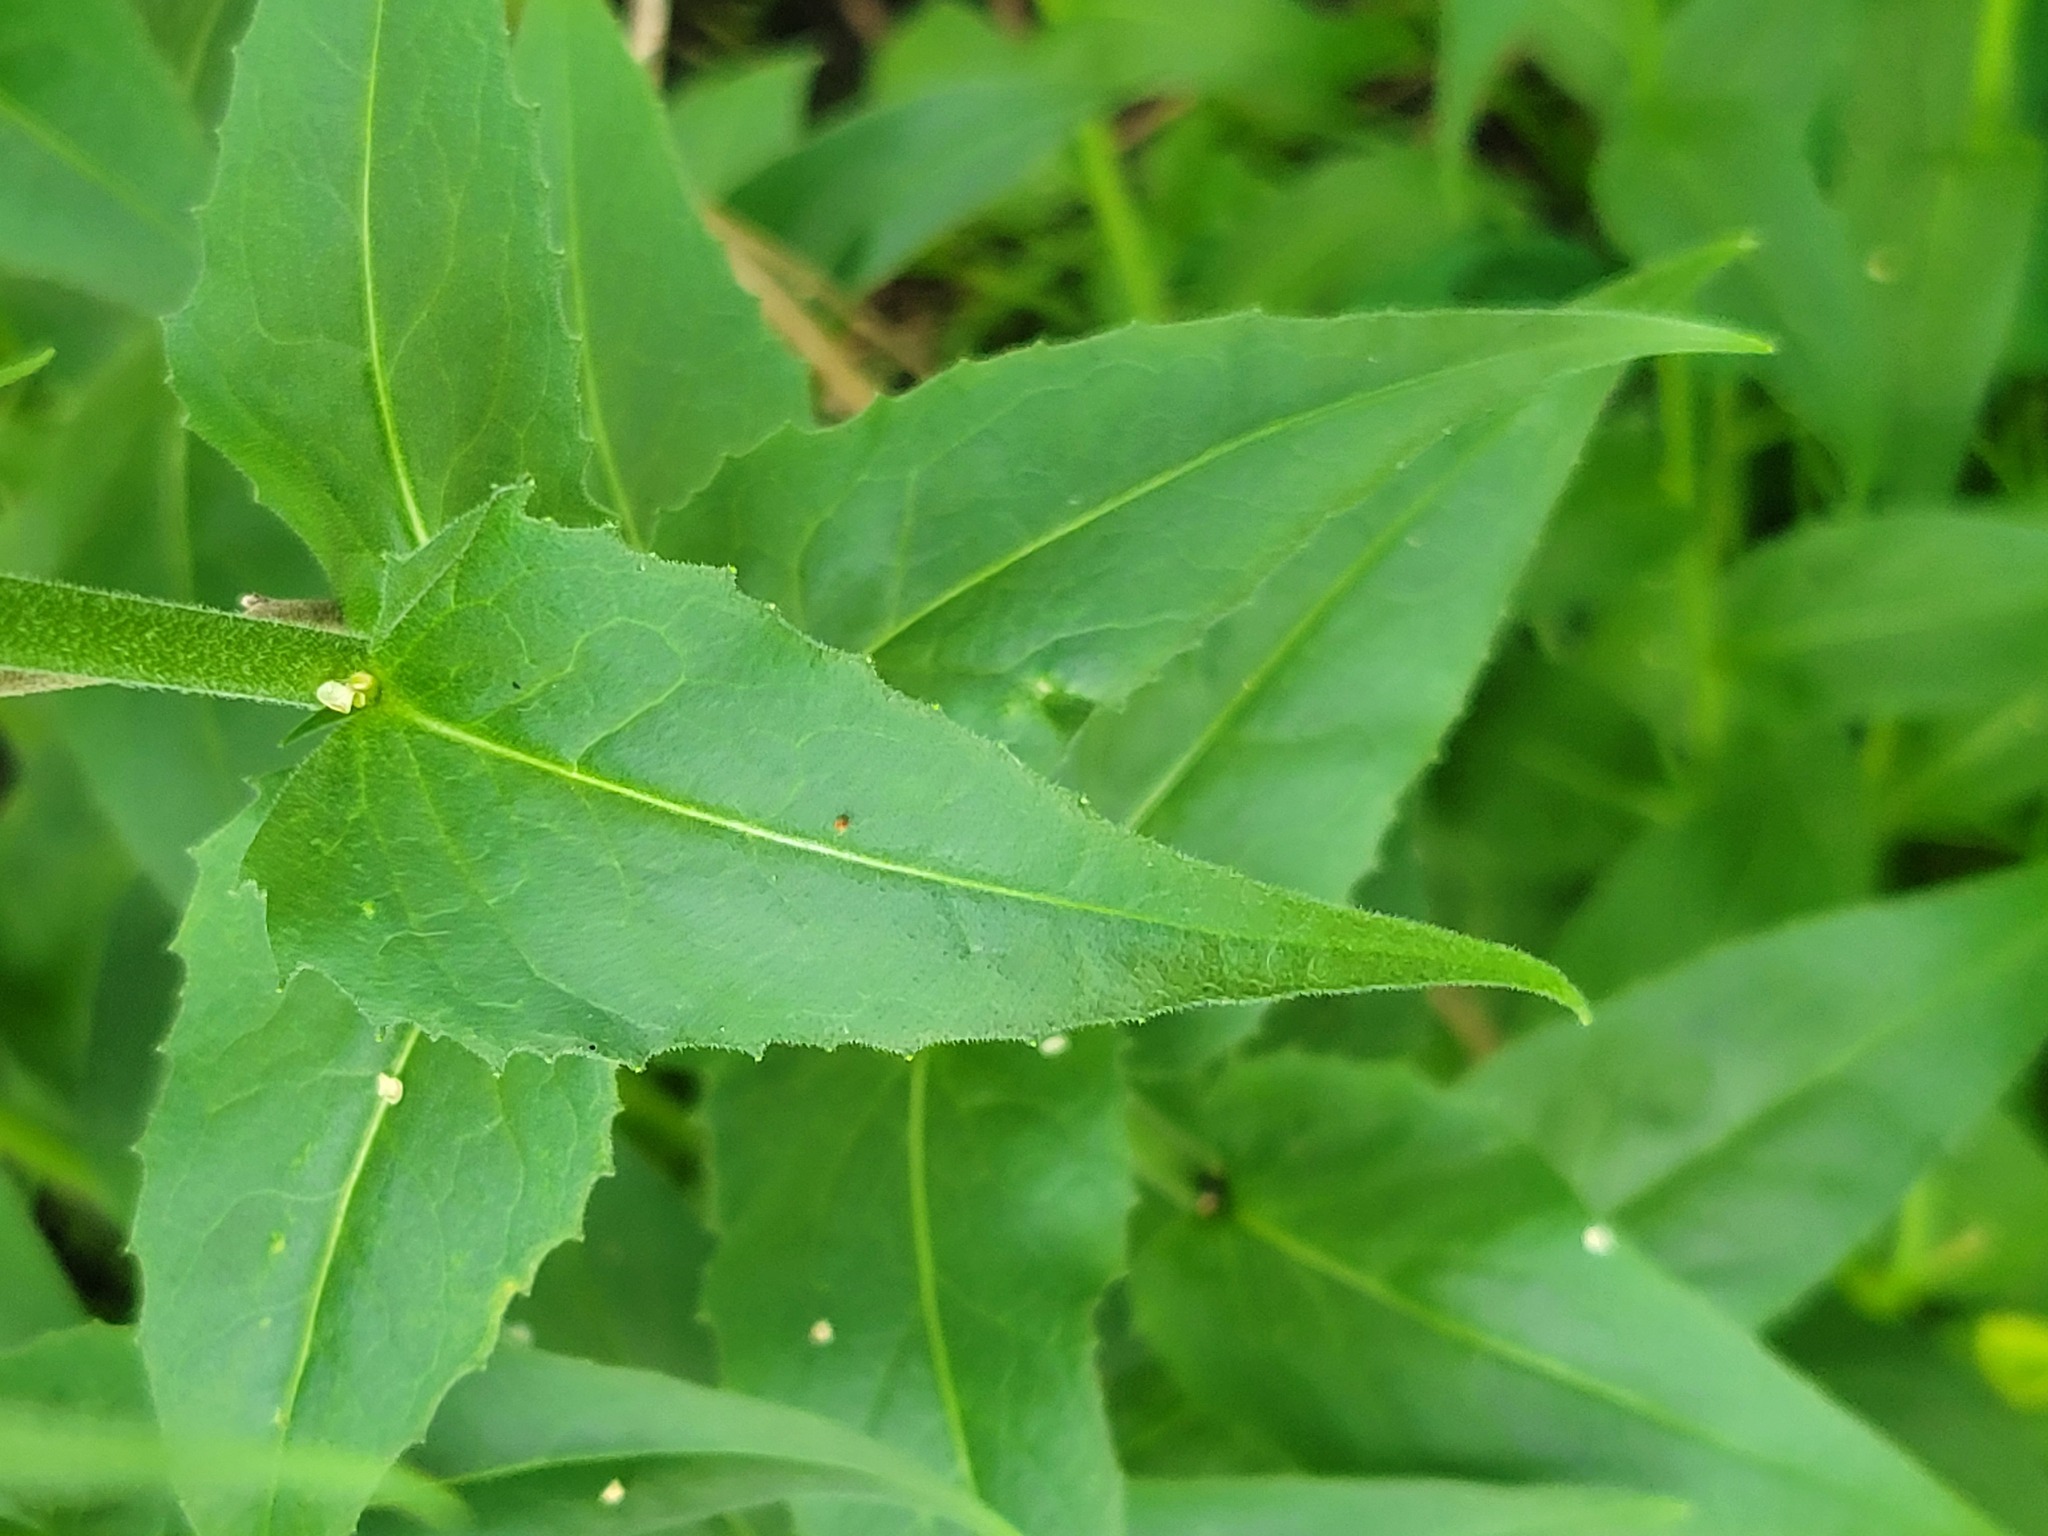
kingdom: Plantae
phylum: Tracheophyta
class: Magnoliopsida
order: Brassicales
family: Brassicaceae
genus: Hesperis
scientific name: Hesperis matronalis
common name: Dame's-violet
